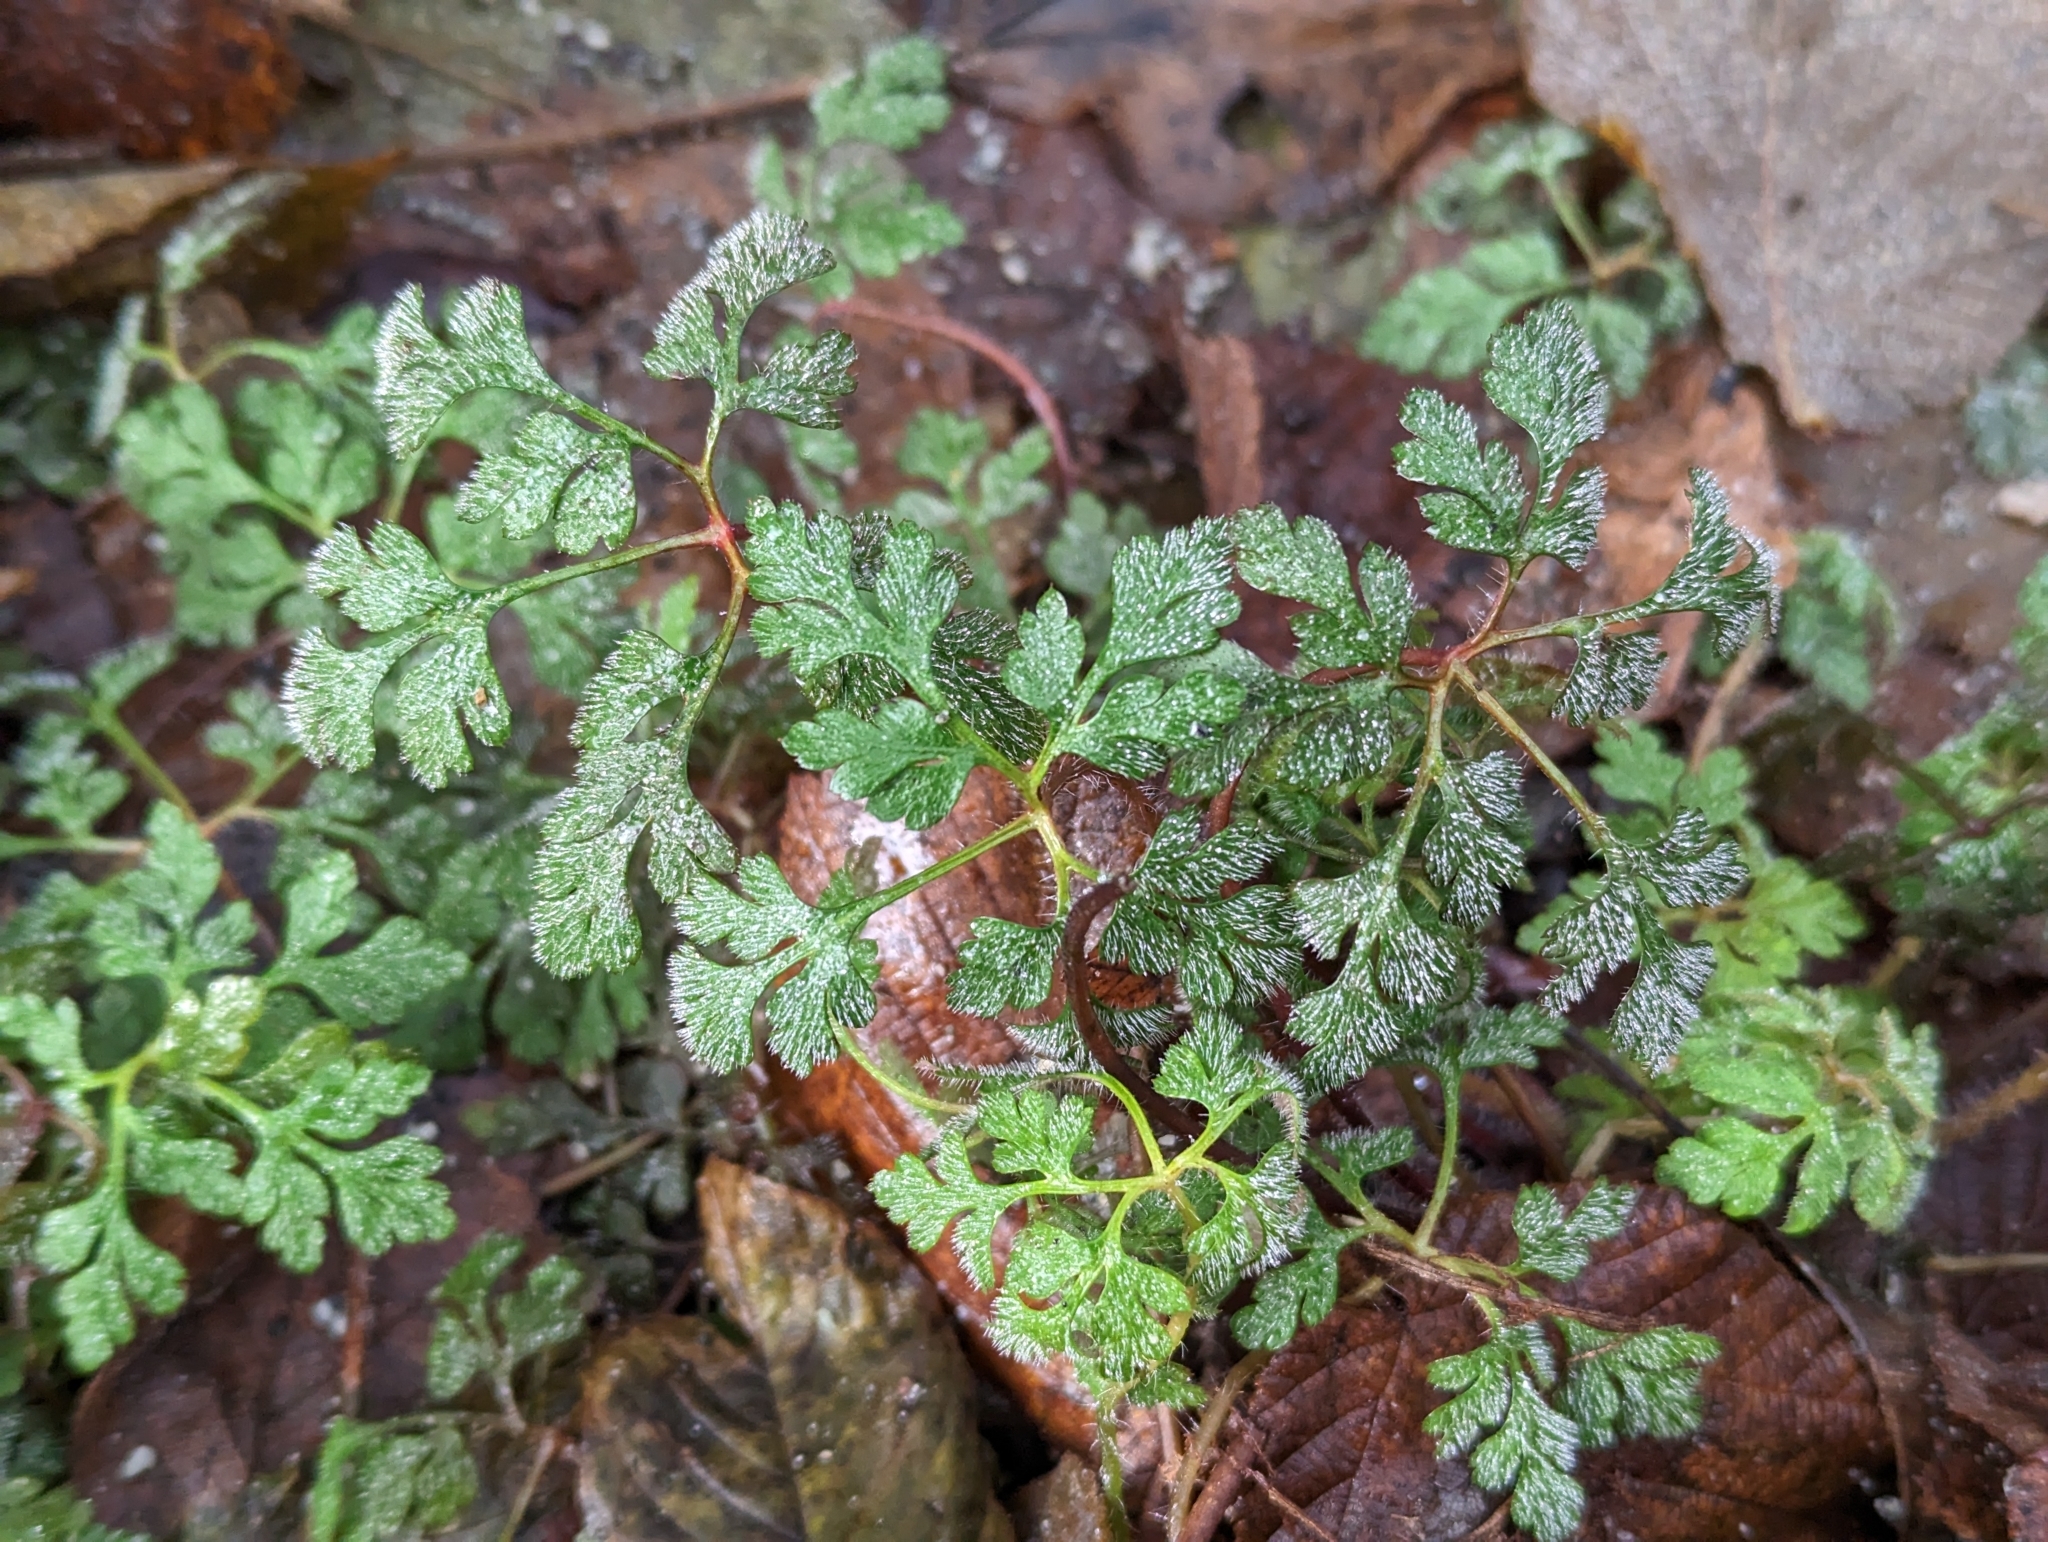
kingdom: Plantae
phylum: Tracheophyta
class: Magnoliopsida
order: Geraniales
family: Geraniaceae
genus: Geranium
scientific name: Geranium robertianum
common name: Herb-robert
